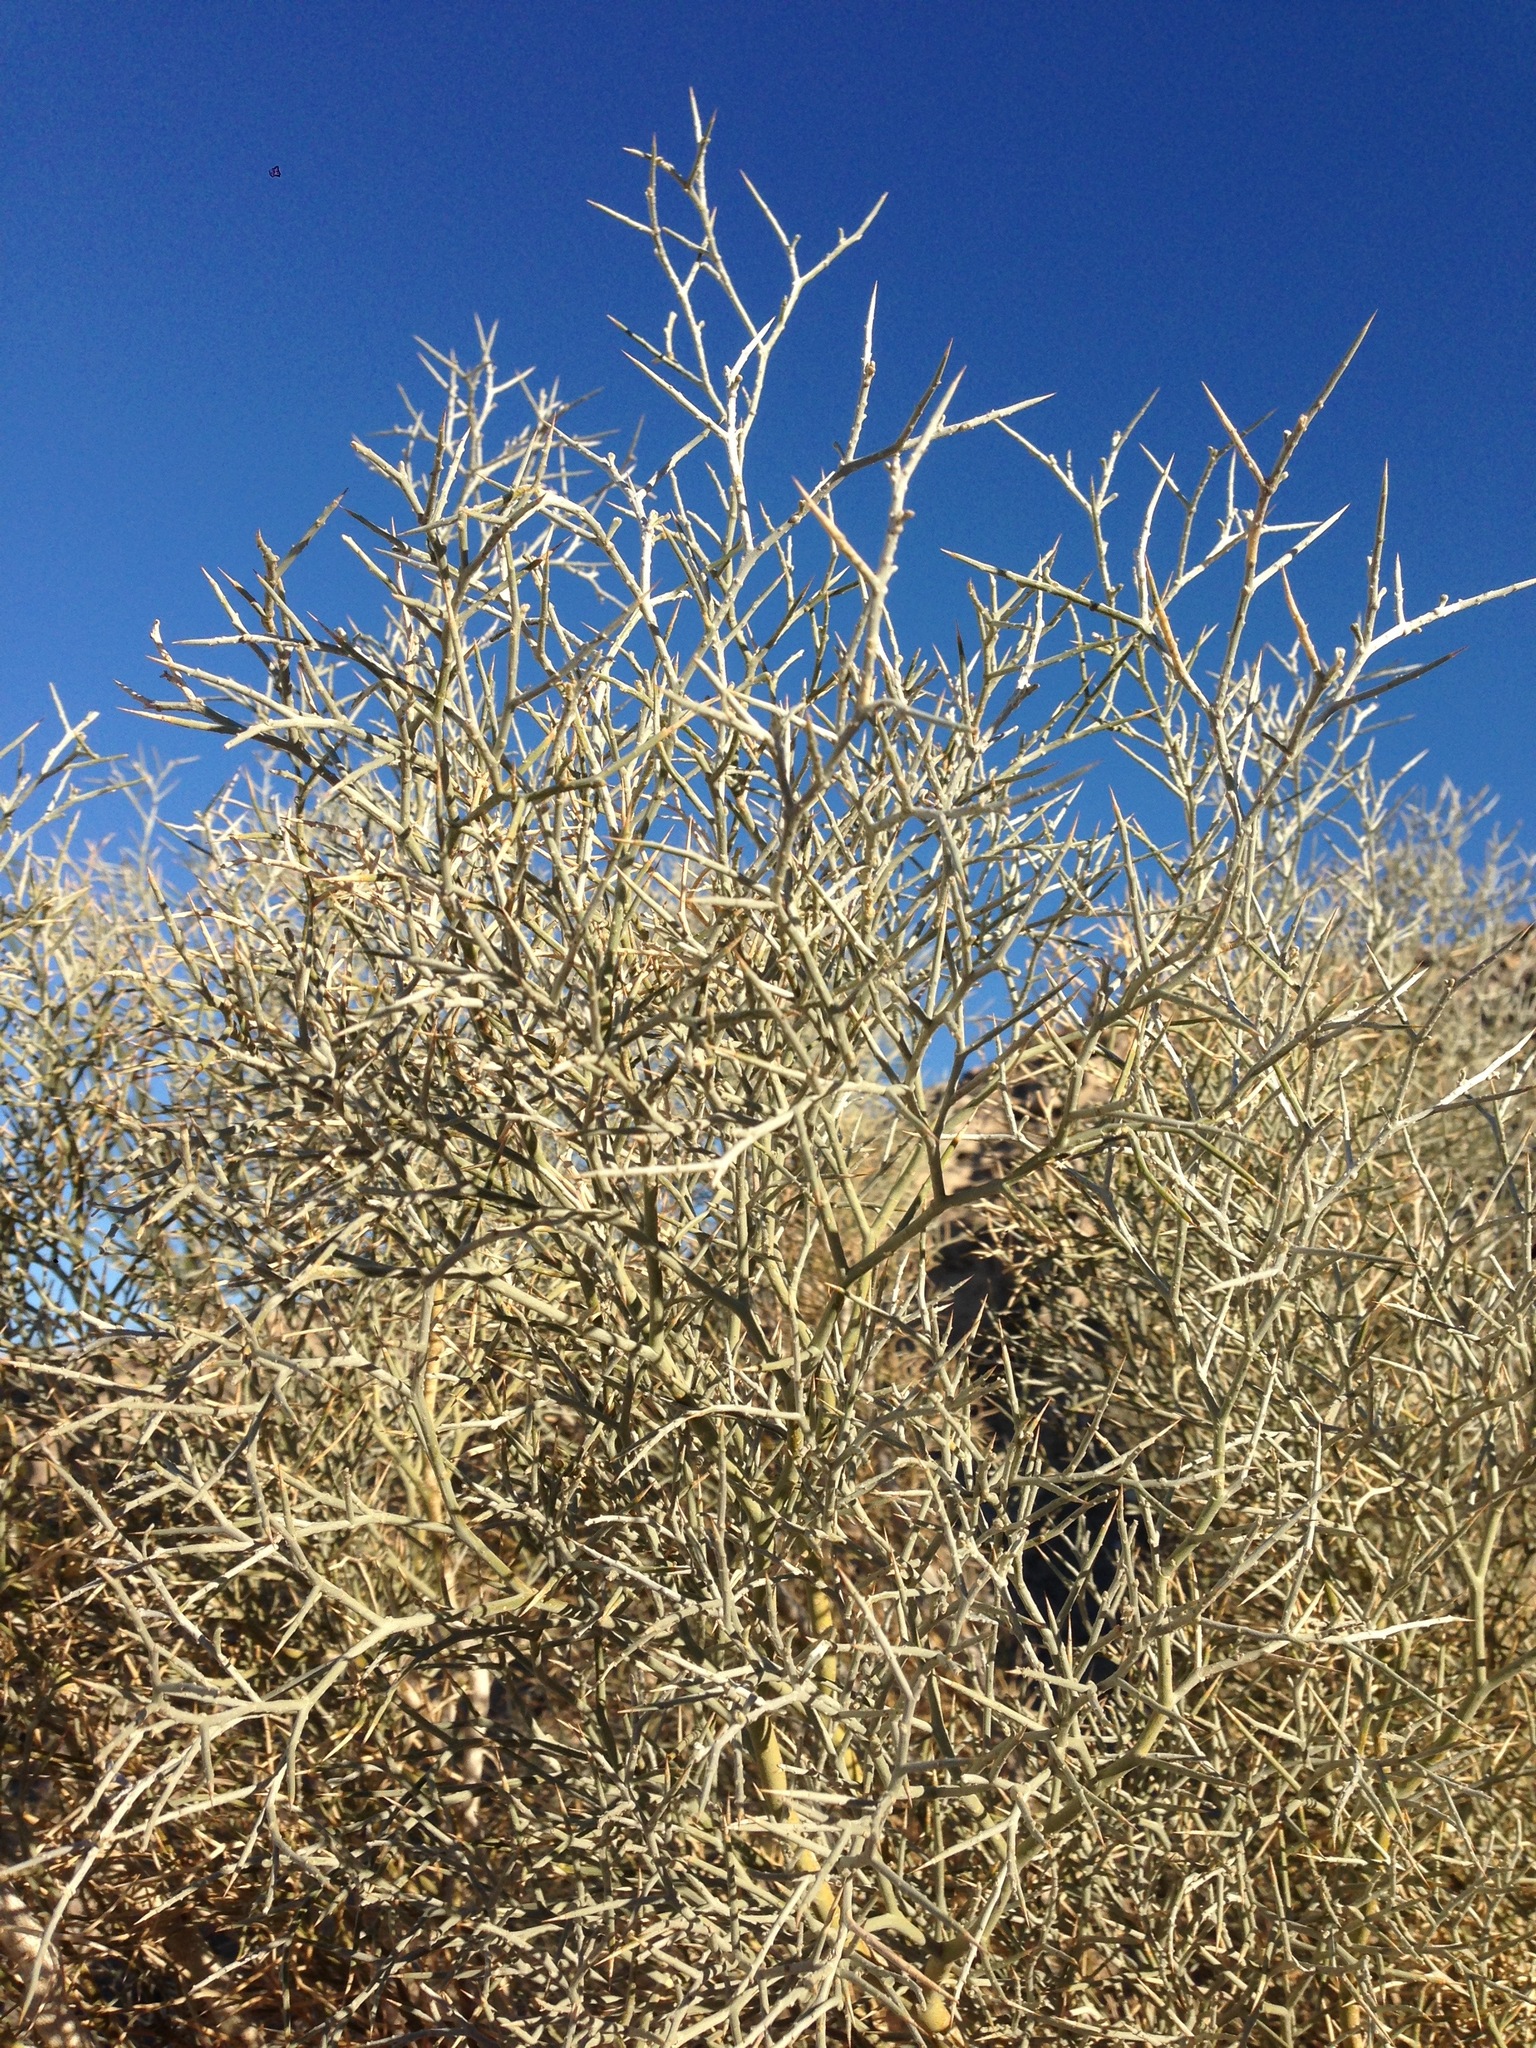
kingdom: Plantae
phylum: Tracheophyta
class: Magnoliopsida
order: Fabales
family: Fabaceae
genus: Psorothamnus
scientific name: Psorothamnus spinosus
